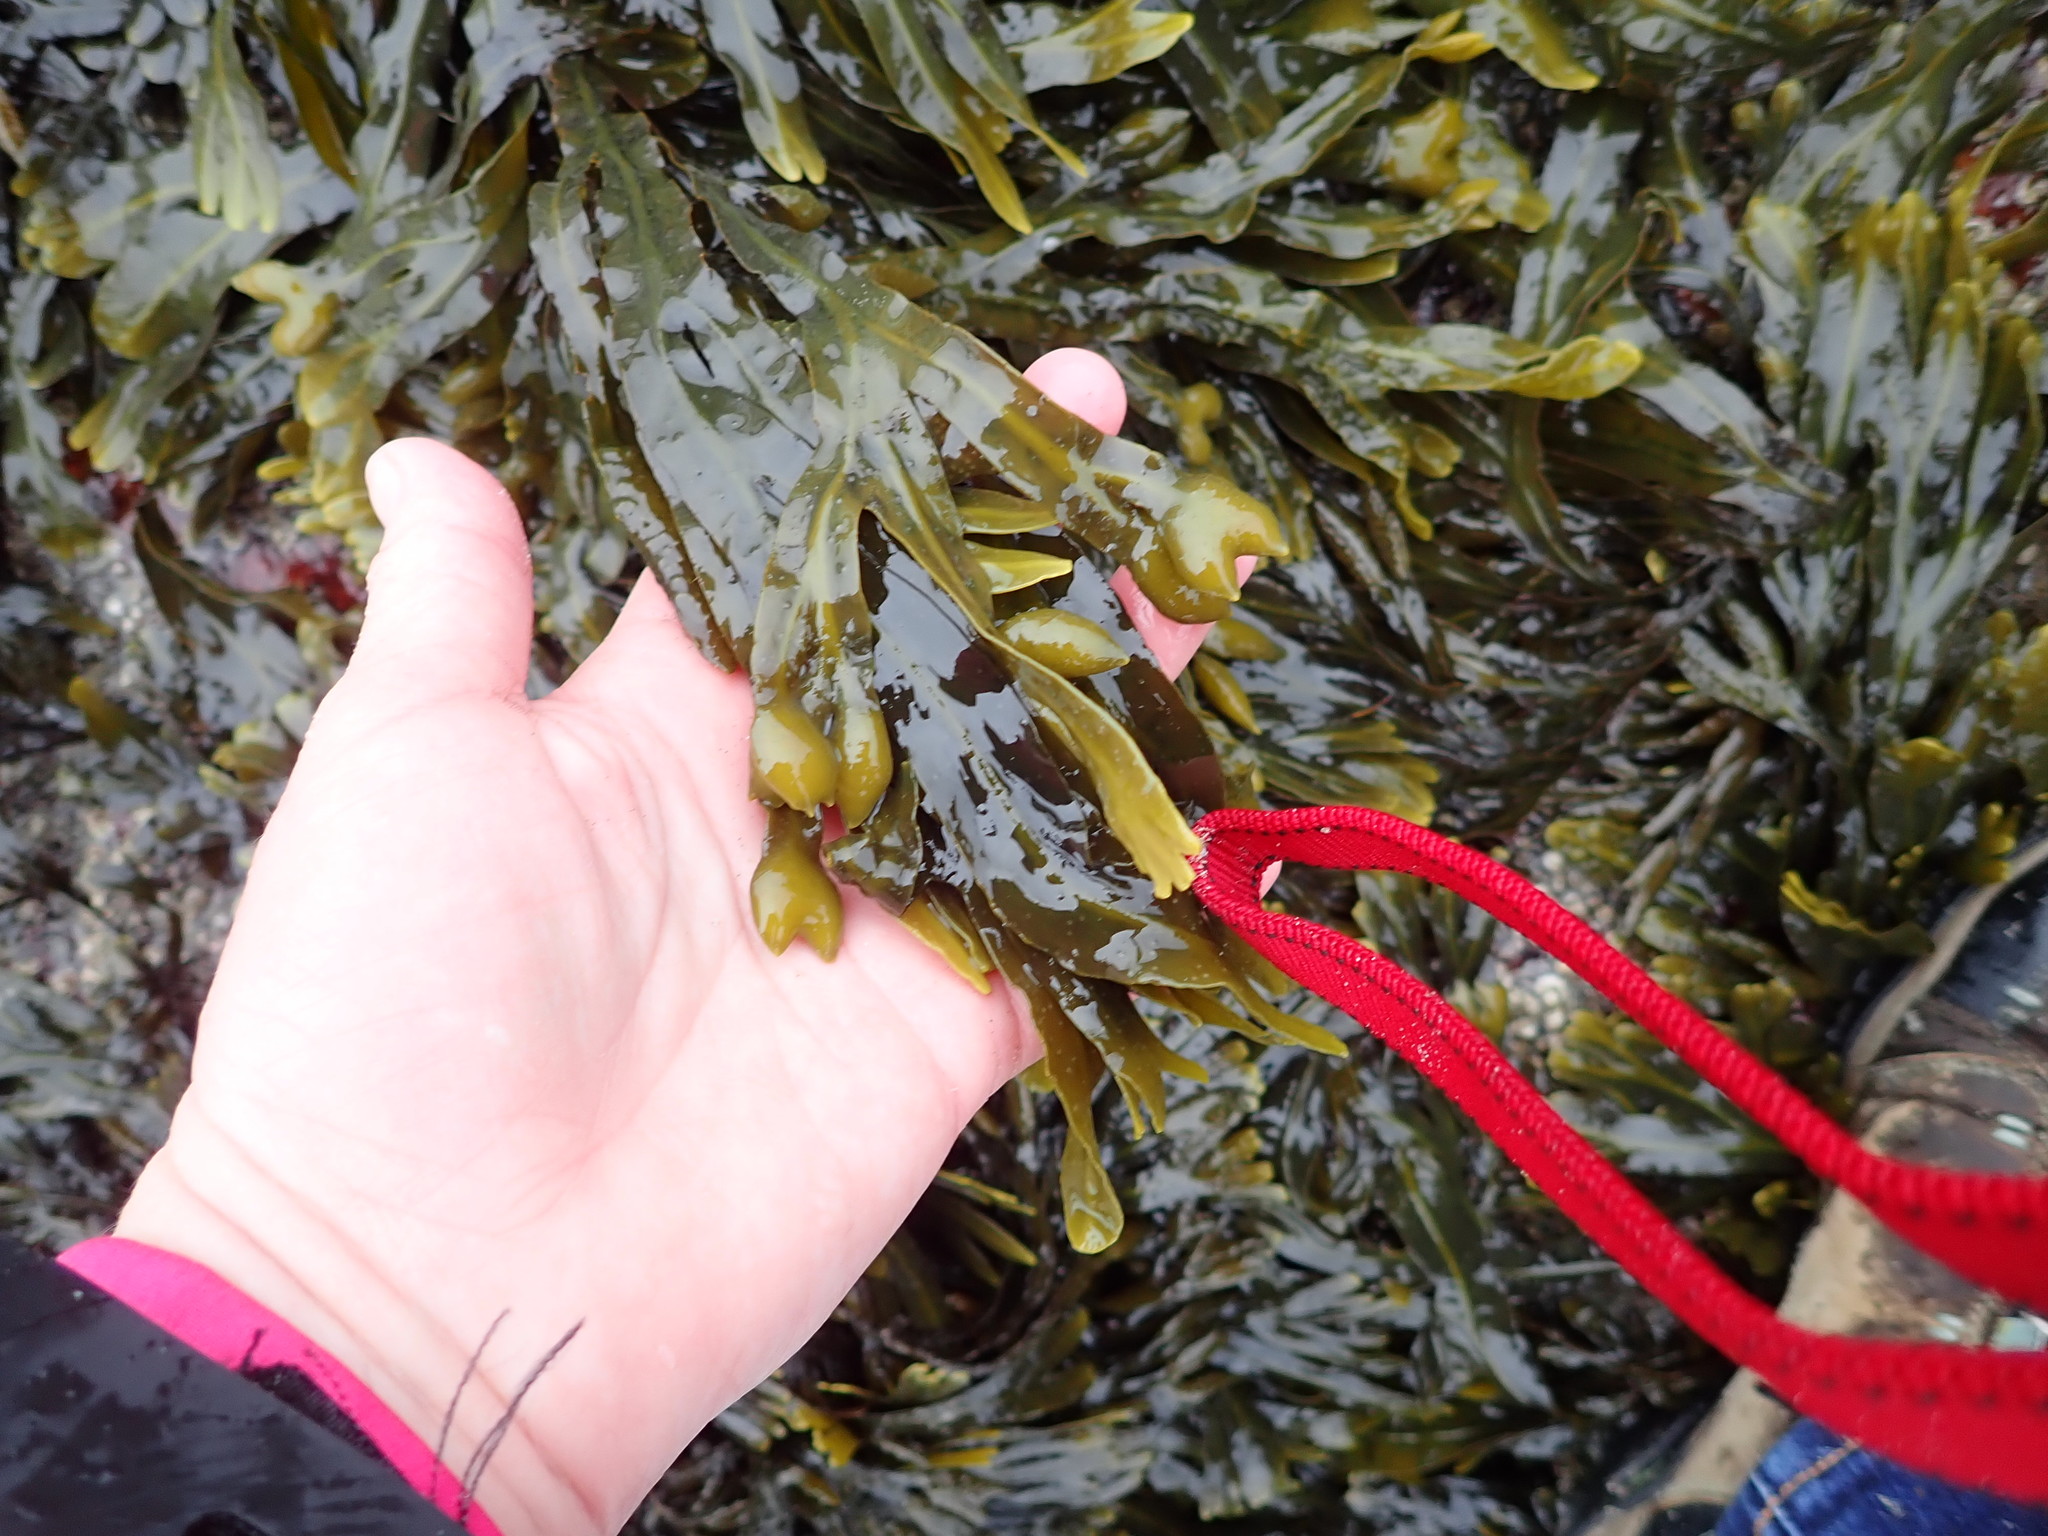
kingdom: Chromista
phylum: Ochrophyta
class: Phaeophyceae
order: Fucales
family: Fucaceae
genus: Fucus
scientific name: Fucus distichus
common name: Rockweed
